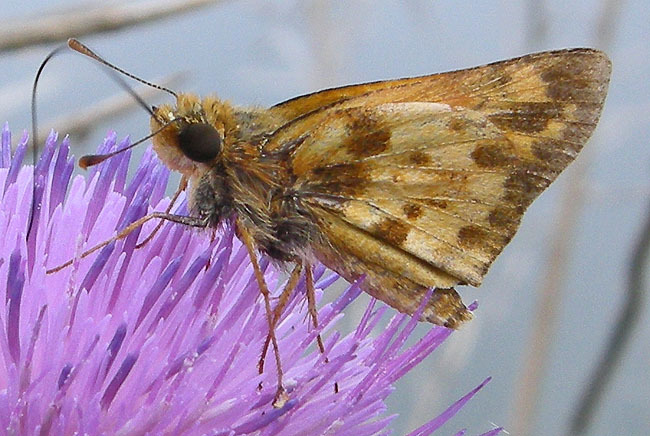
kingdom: Animalia
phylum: Arthropoda
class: Insecta
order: Lepidoptera
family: Hesperiidae
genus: Lon
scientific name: Lon zabulon
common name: Zabulon skipper
